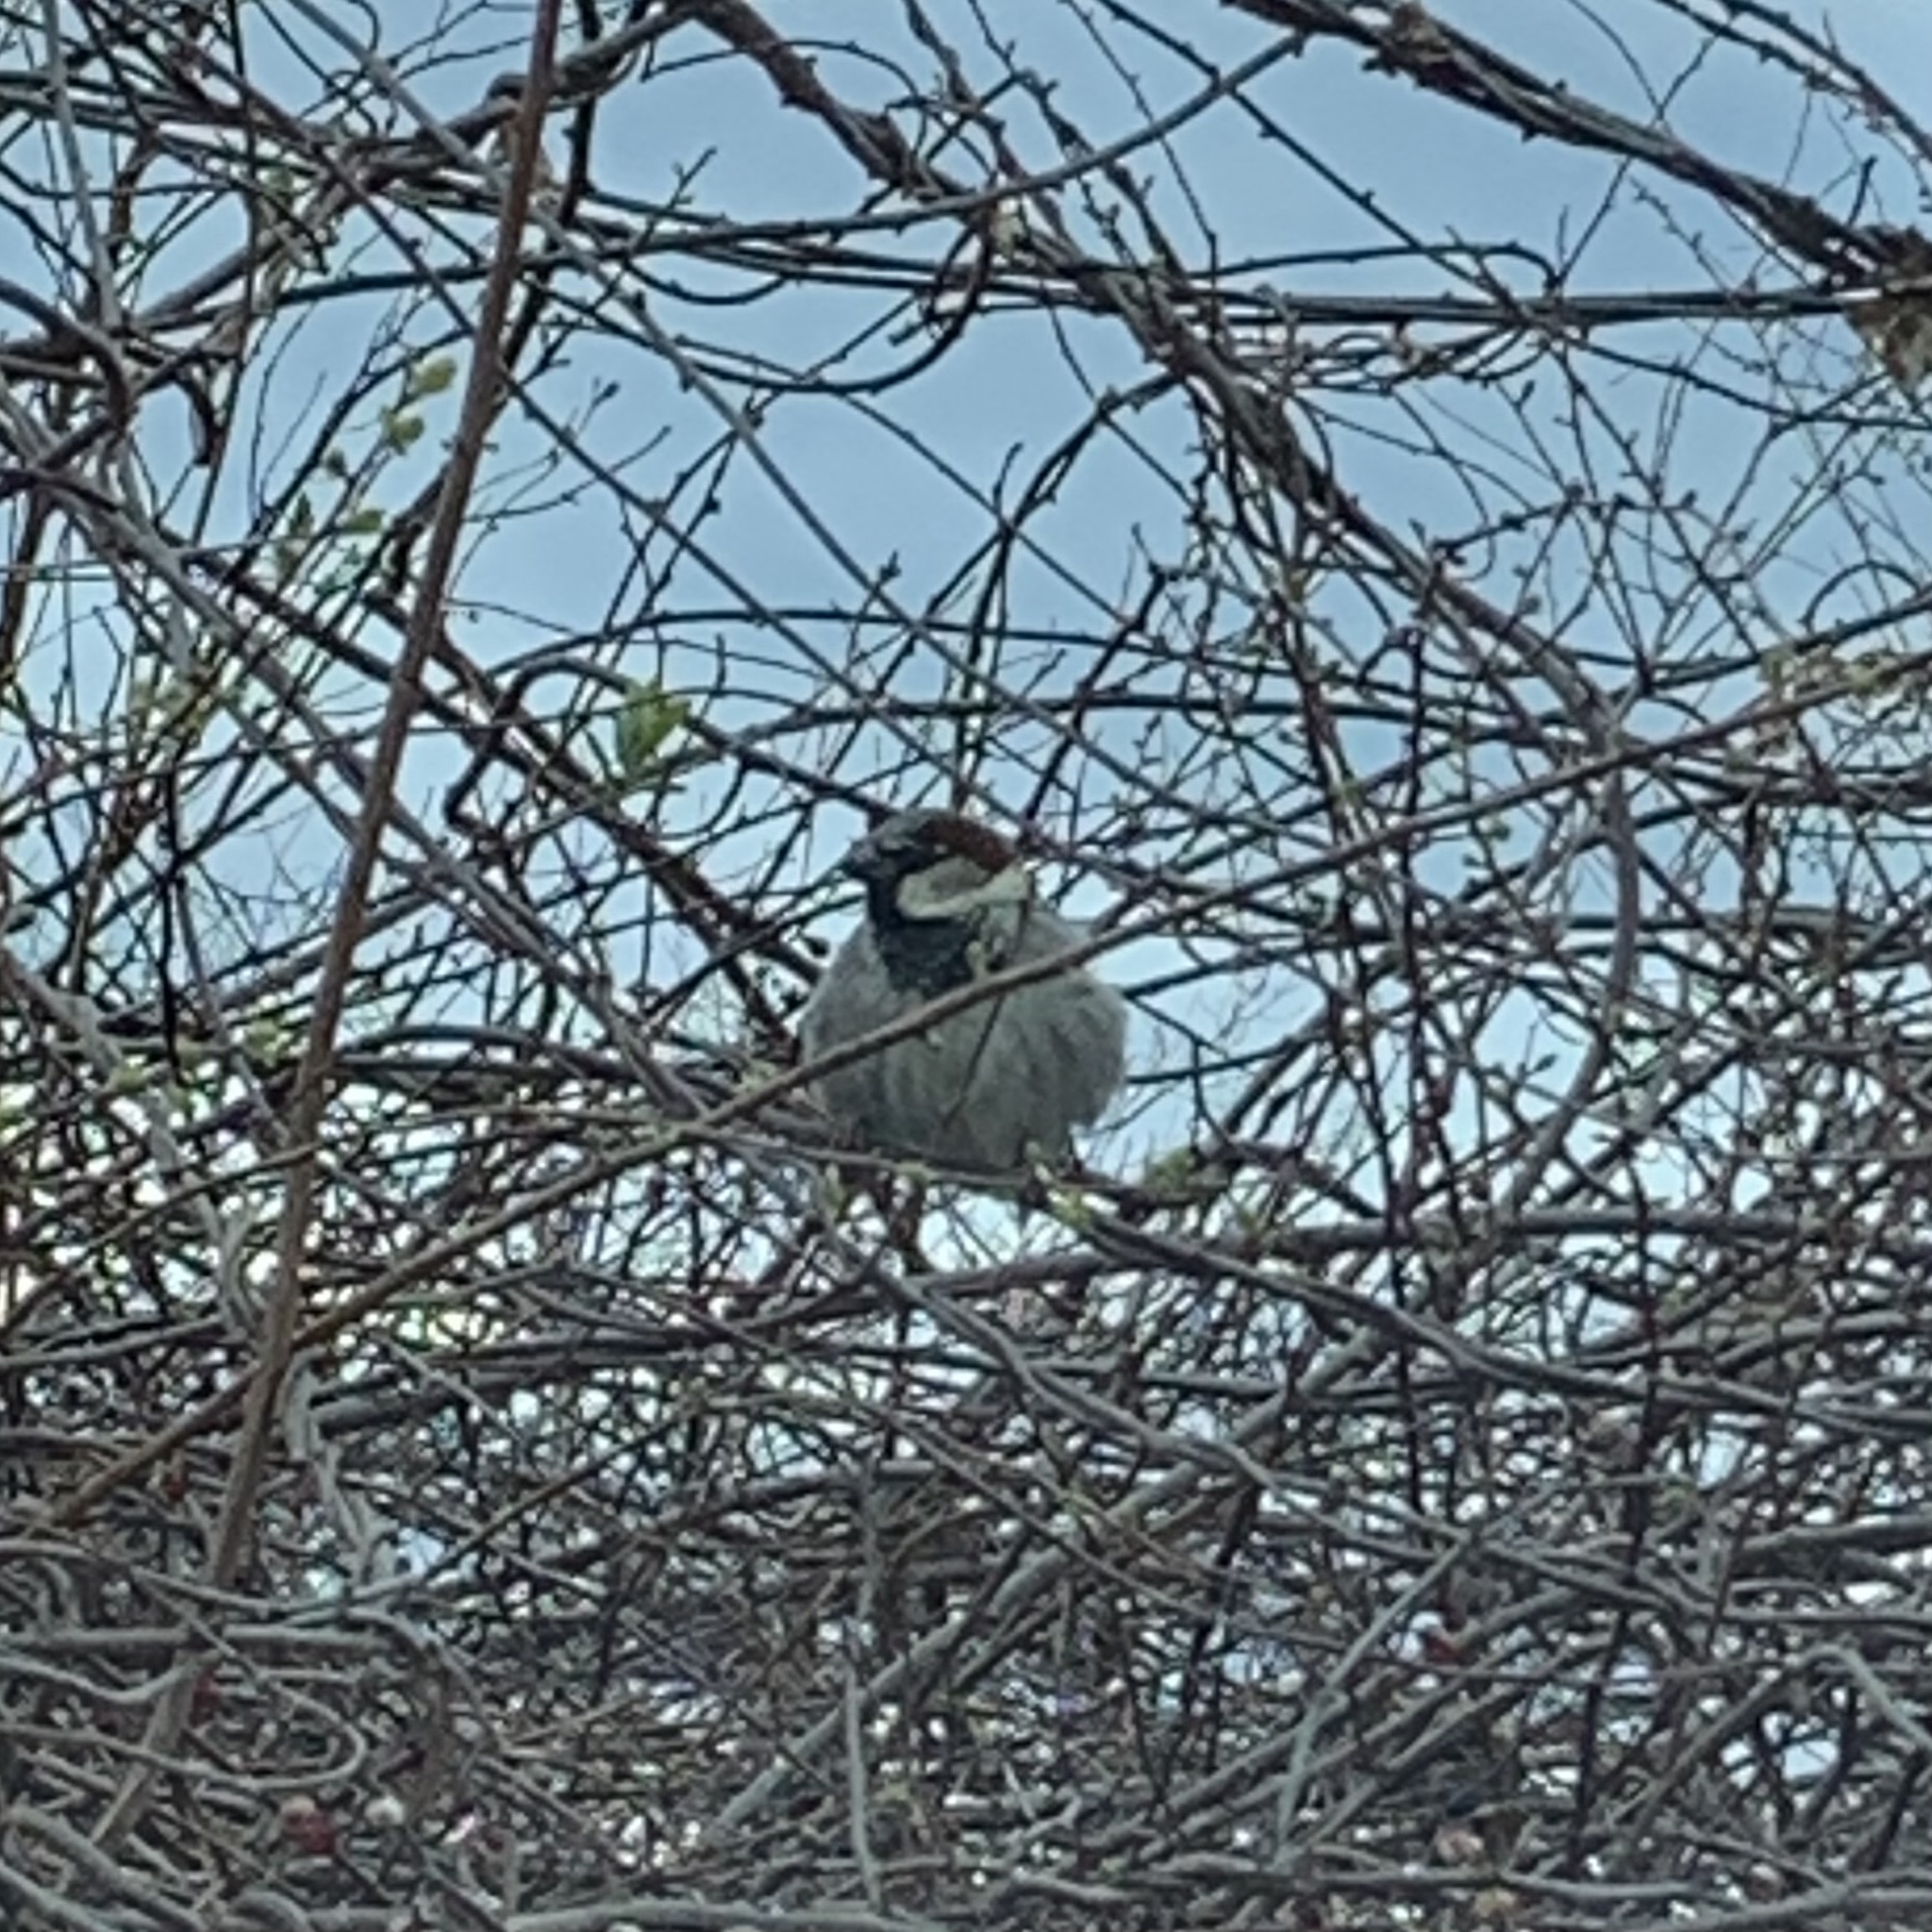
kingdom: Animalia
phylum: Chordata
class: Aves
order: Passeriformes
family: Passeridae
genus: Passer
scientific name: Passer domesticus
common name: House sparrow
